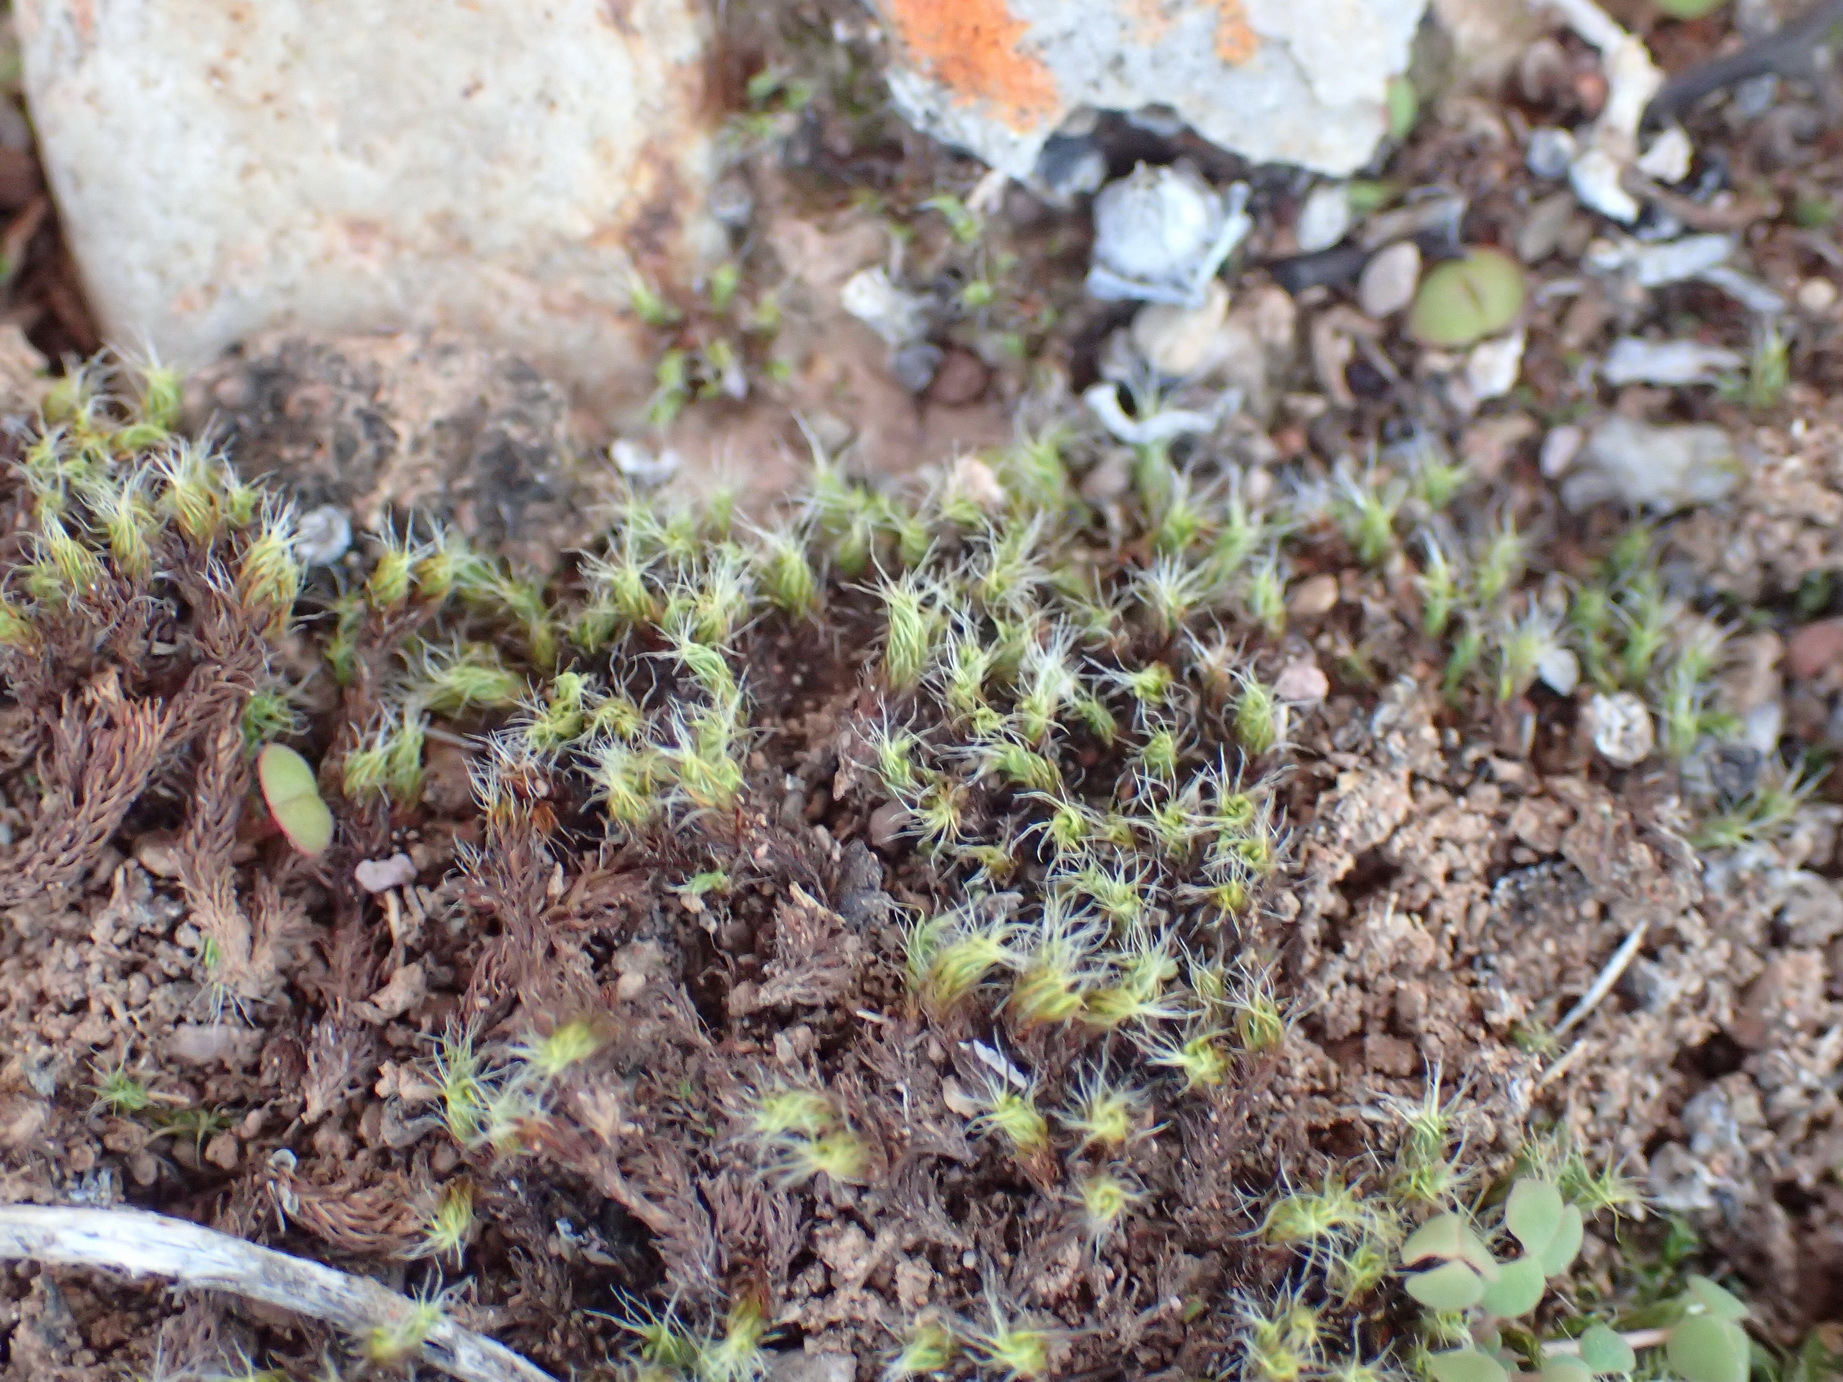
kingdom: Plantae
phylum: Bryophyta
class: Bryopsida
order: Gigaspermales
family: Gigaspermaceae
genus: Gigaspermum
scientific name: Gigaspermum repens
